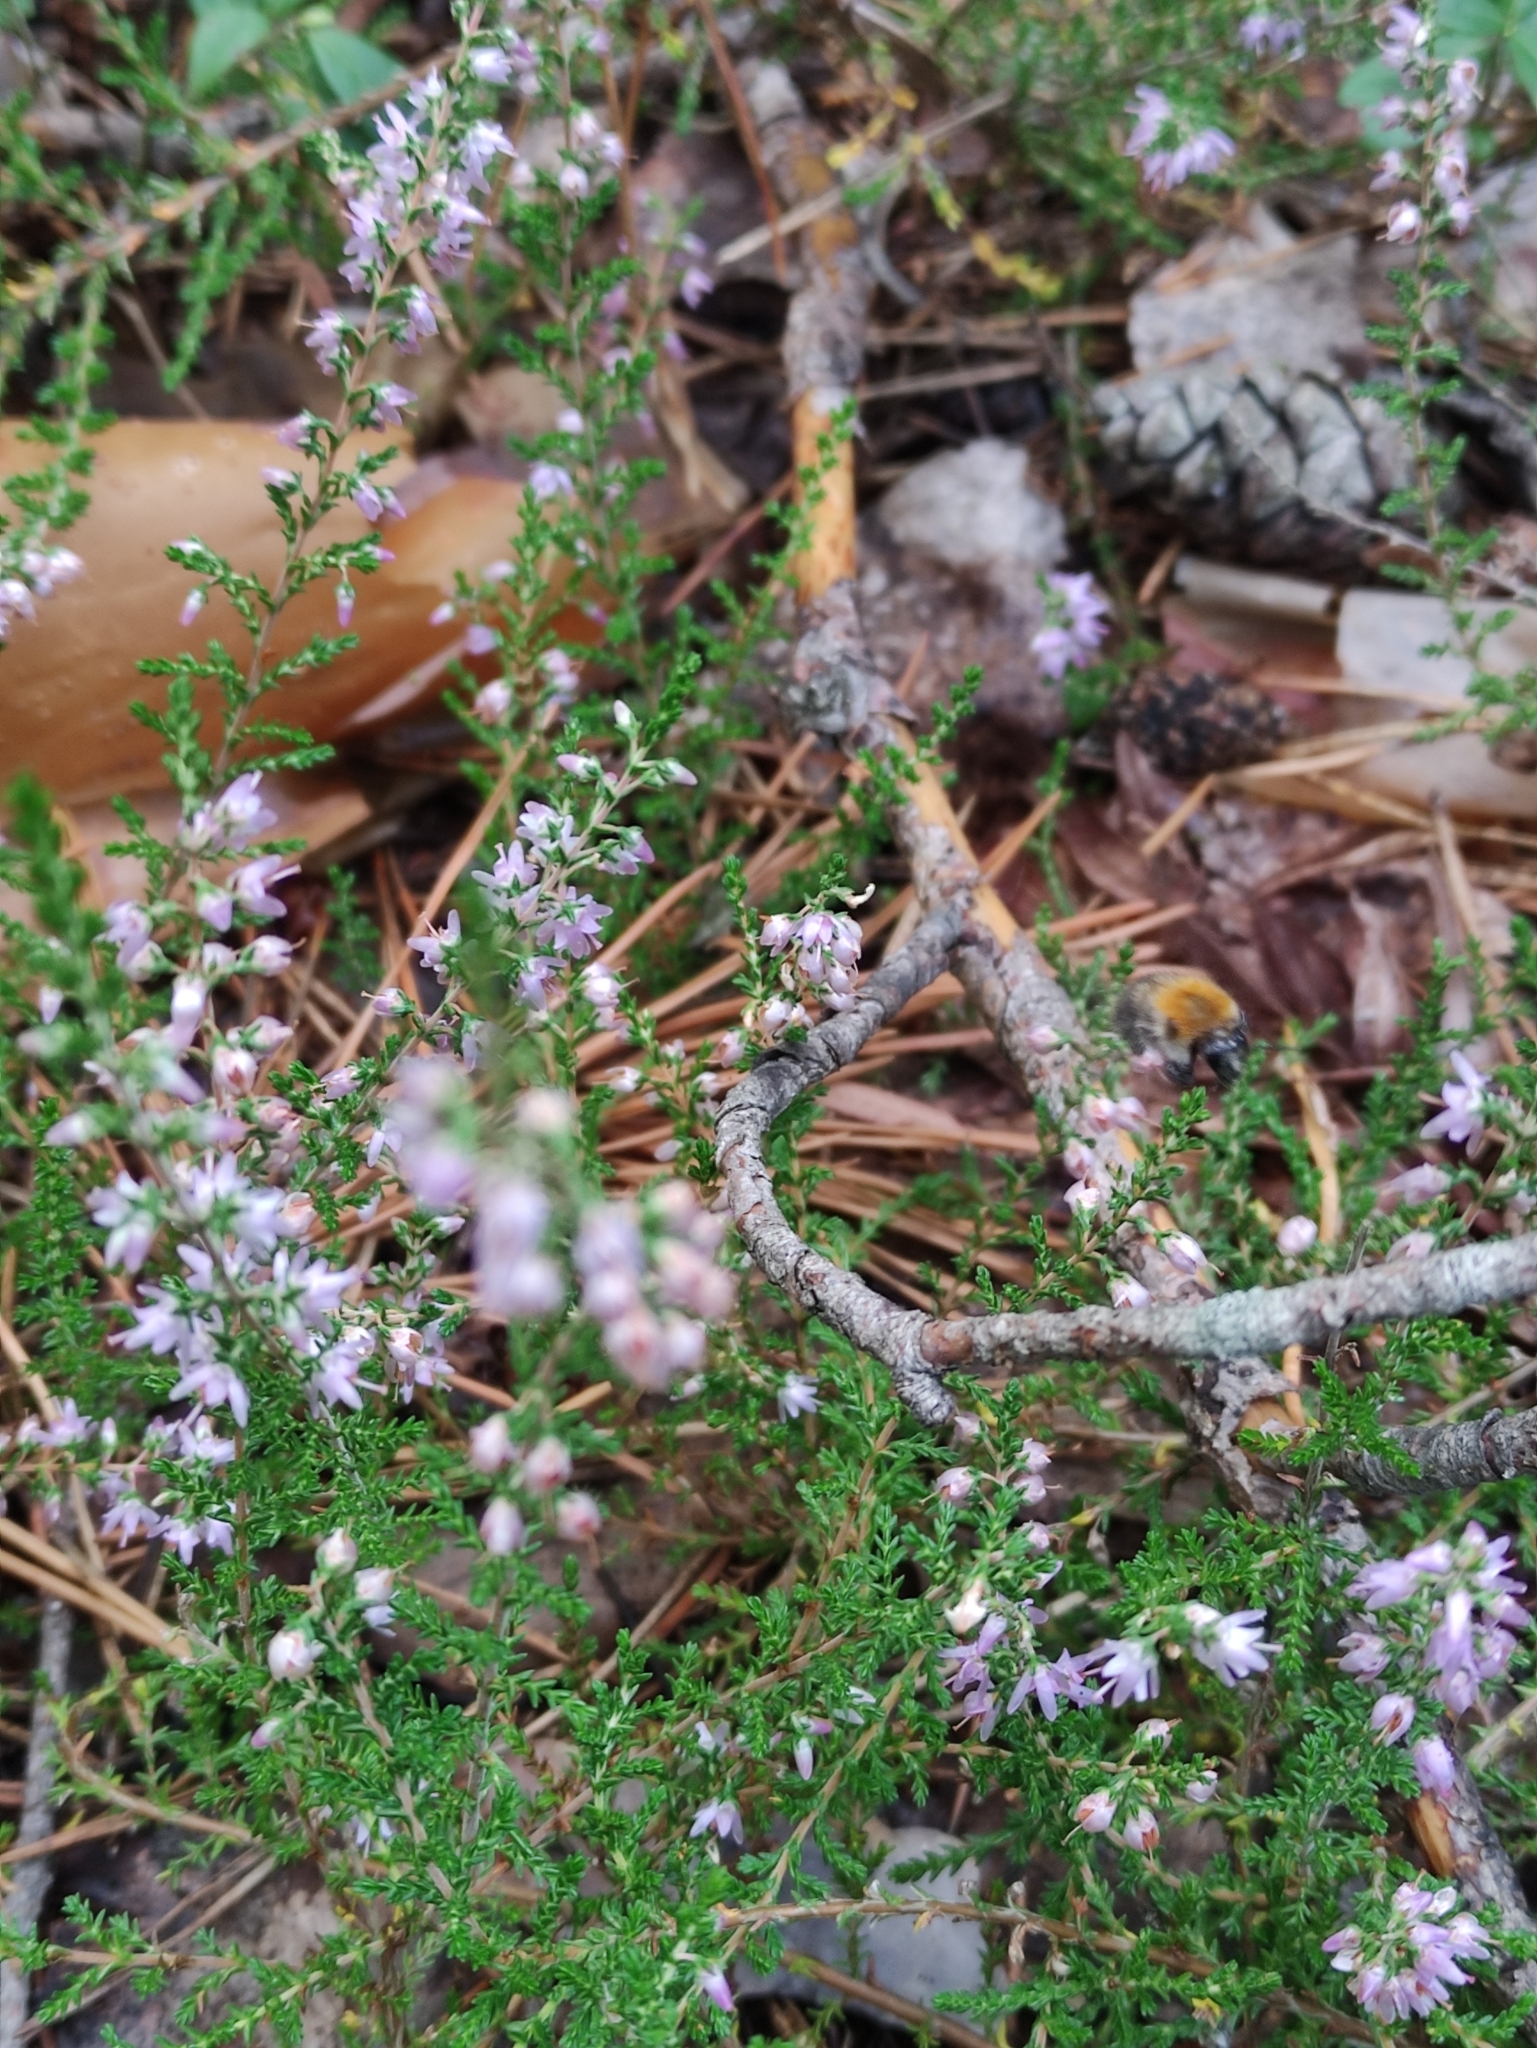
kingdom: Plantae
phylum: Tracheophyta
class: Magnoliopsida
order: Ericales
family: Ericaceae
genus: Calluna
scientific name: Calluna vulgaris
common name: Heather
